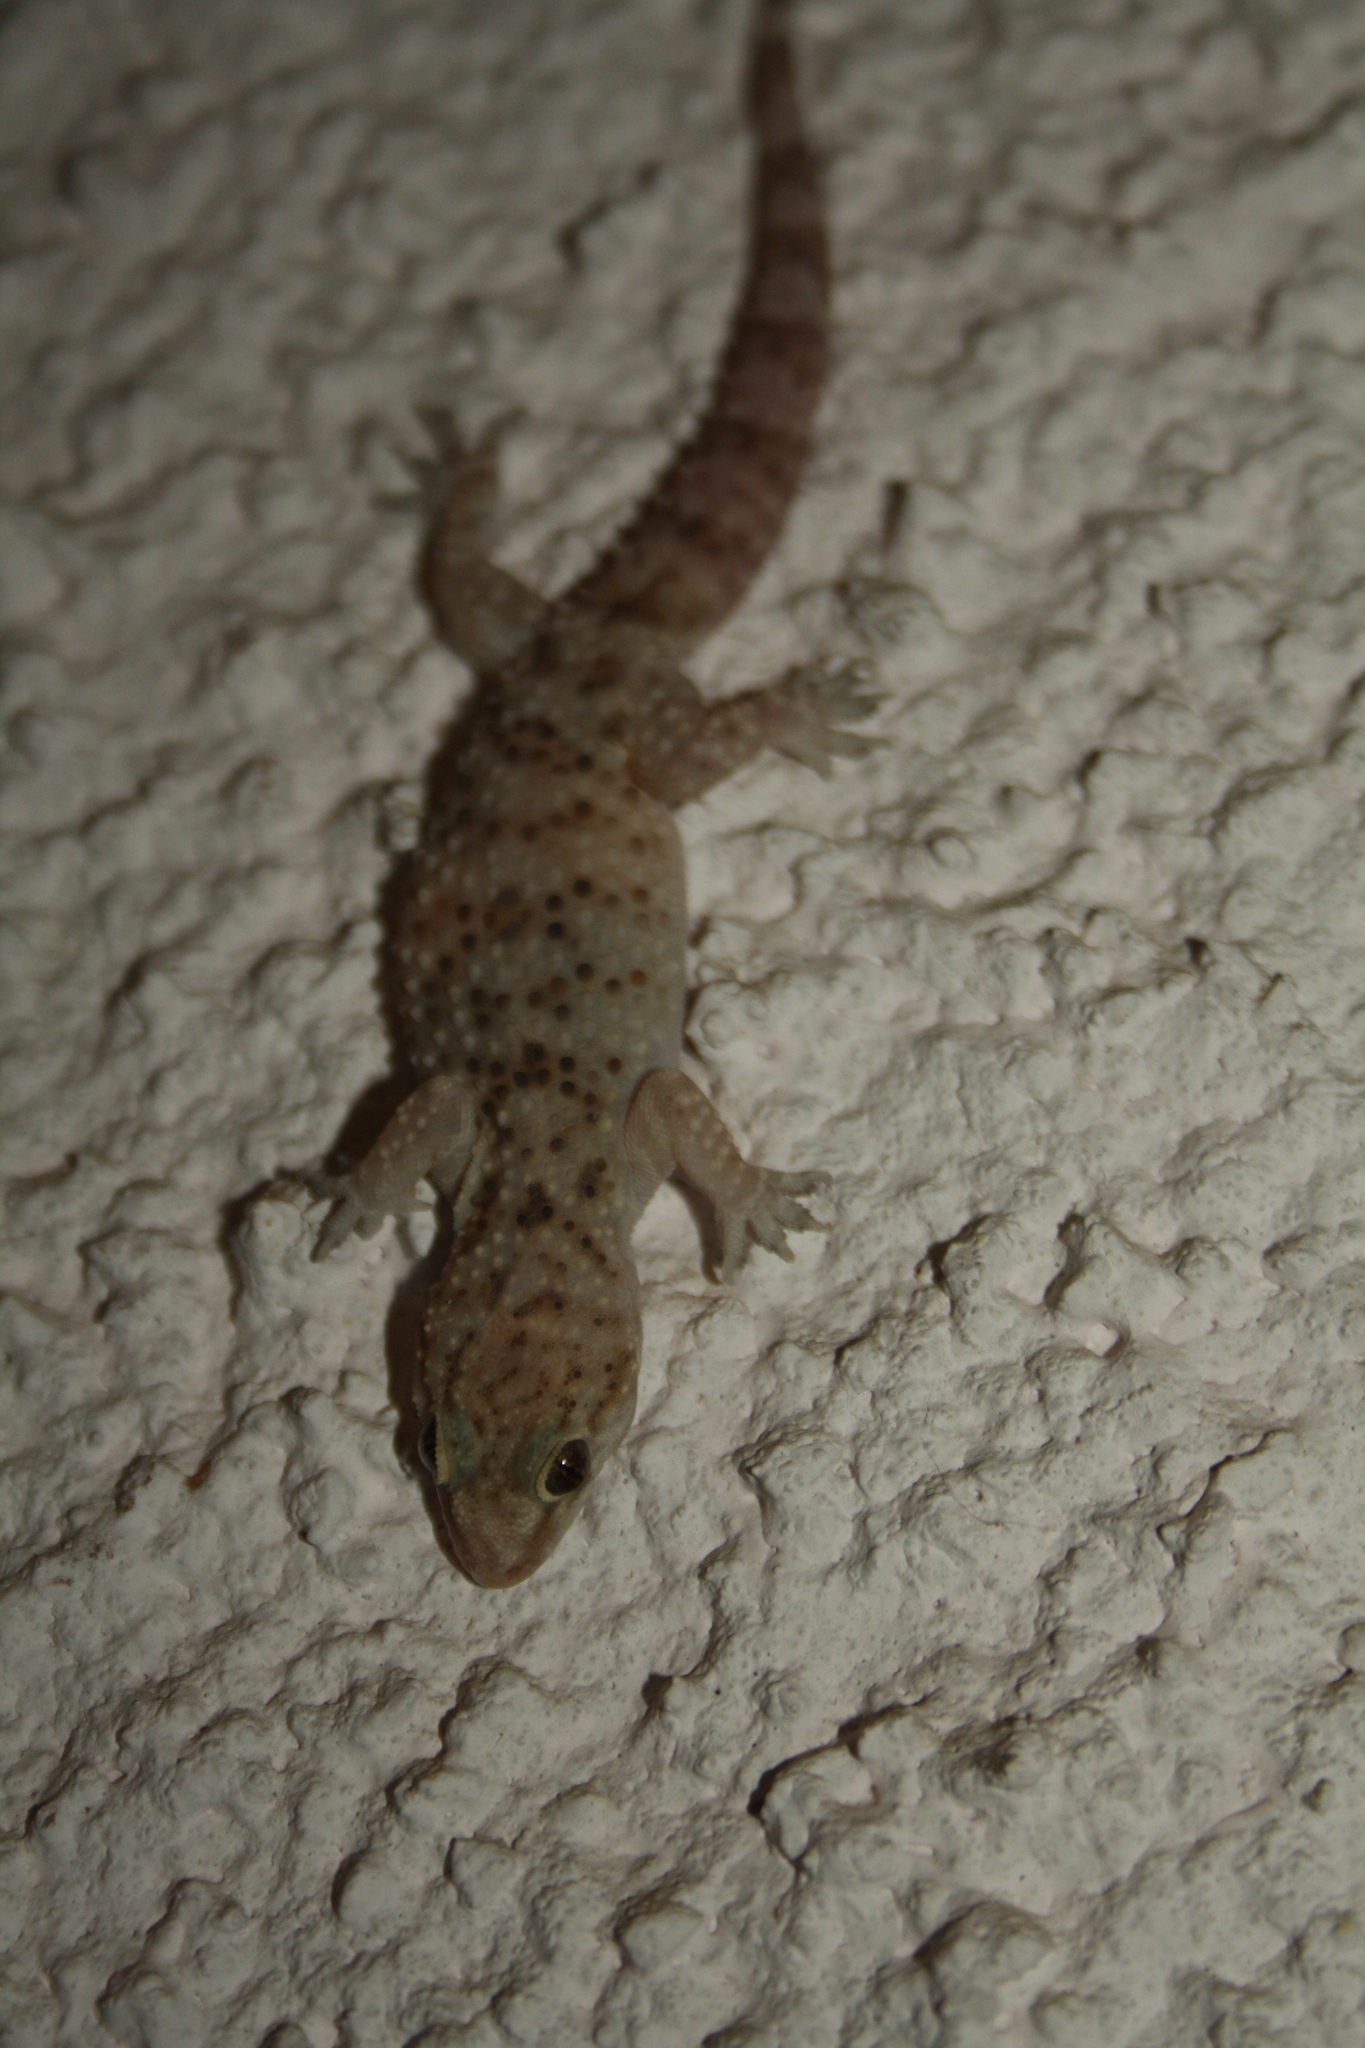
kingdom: Animalia
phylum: Chordata
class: Squamata
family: Gekkonidae
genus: Hemidactylus
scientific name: Hemidactylus turcicus
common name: Turkish gecko
